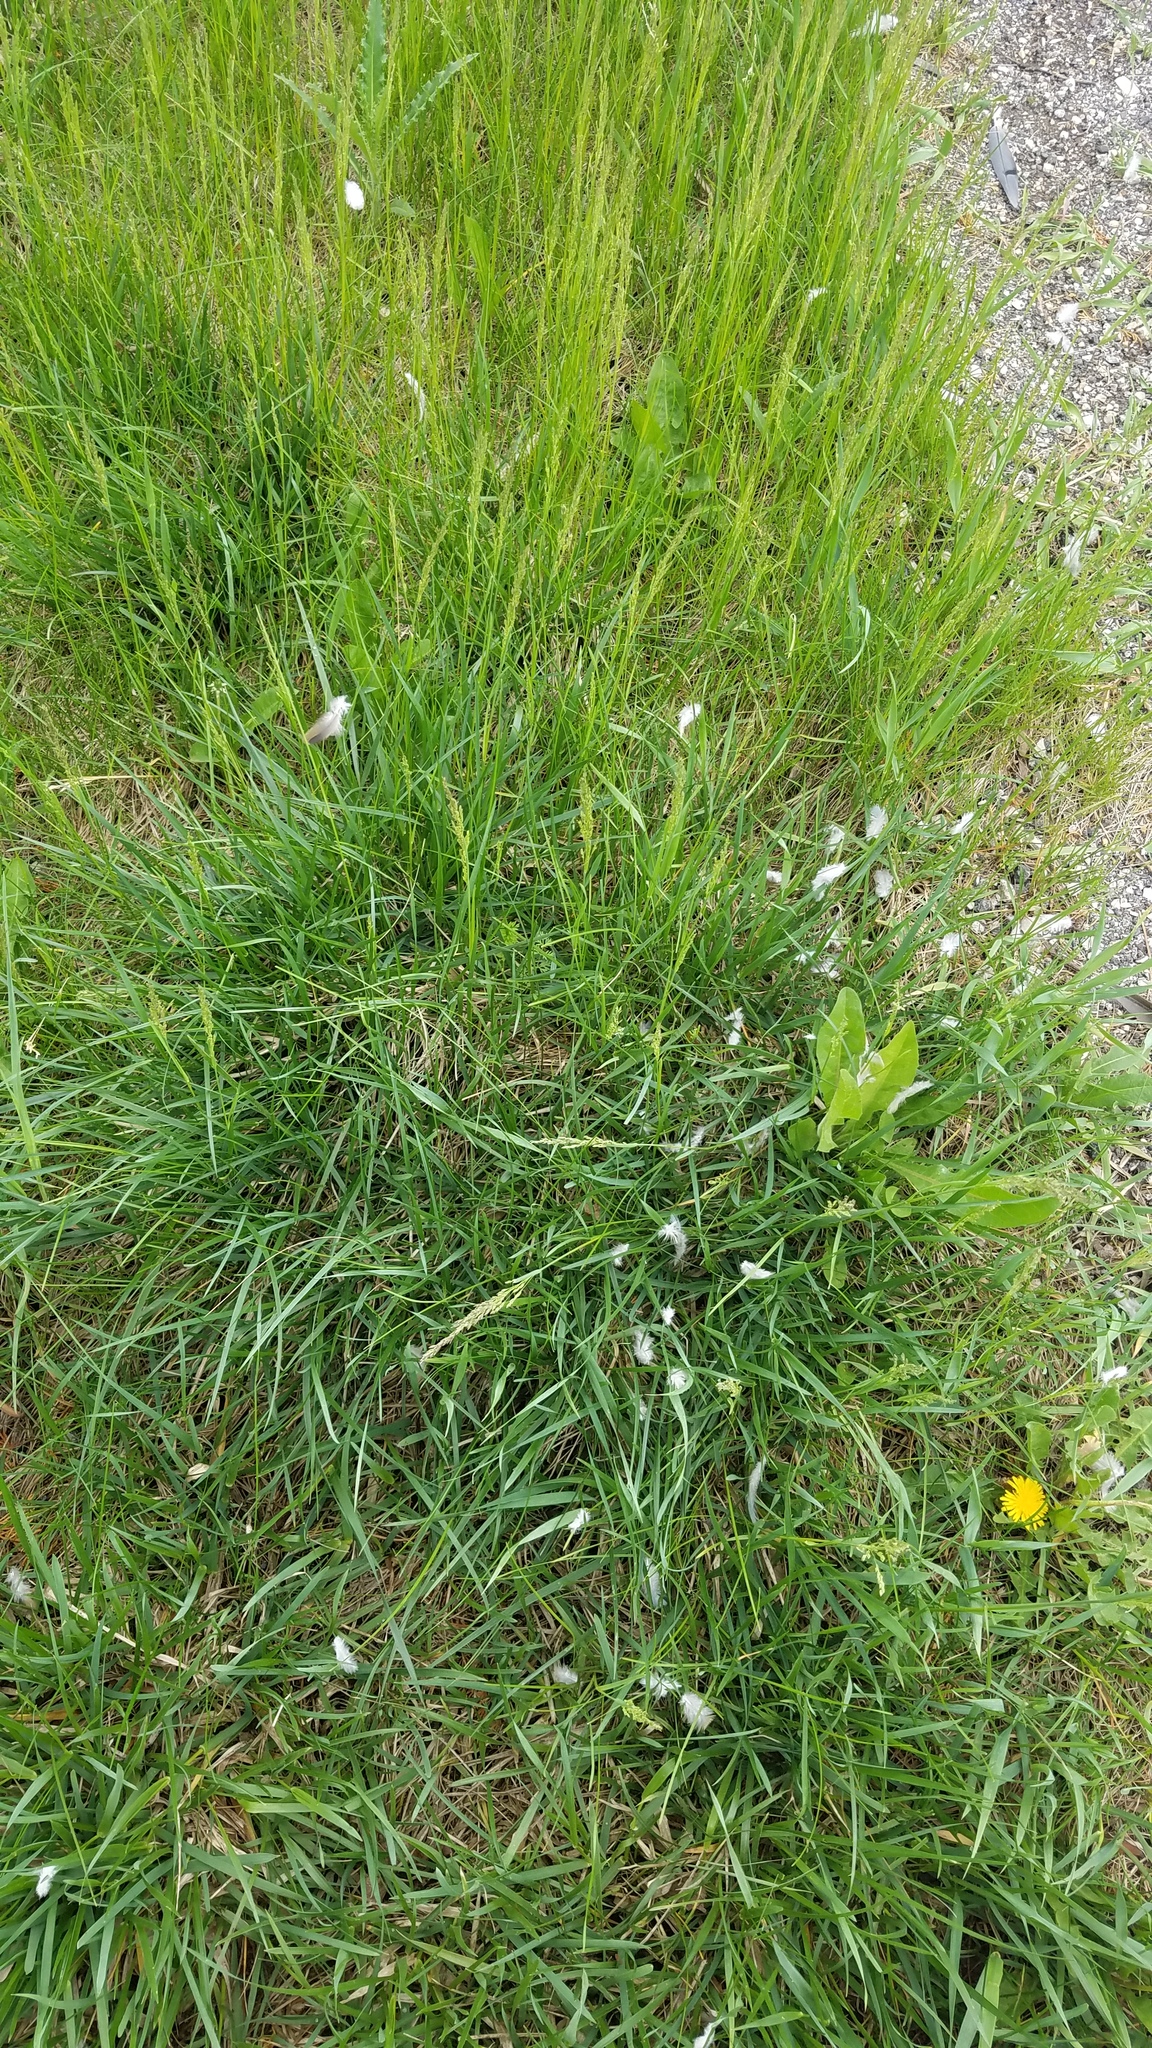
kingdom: Animalia
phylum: Chordata
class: Aves
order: Columbiformes
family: Columbidae
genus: Zenaida
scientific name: Zenaida macroura
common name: Mourning dove
